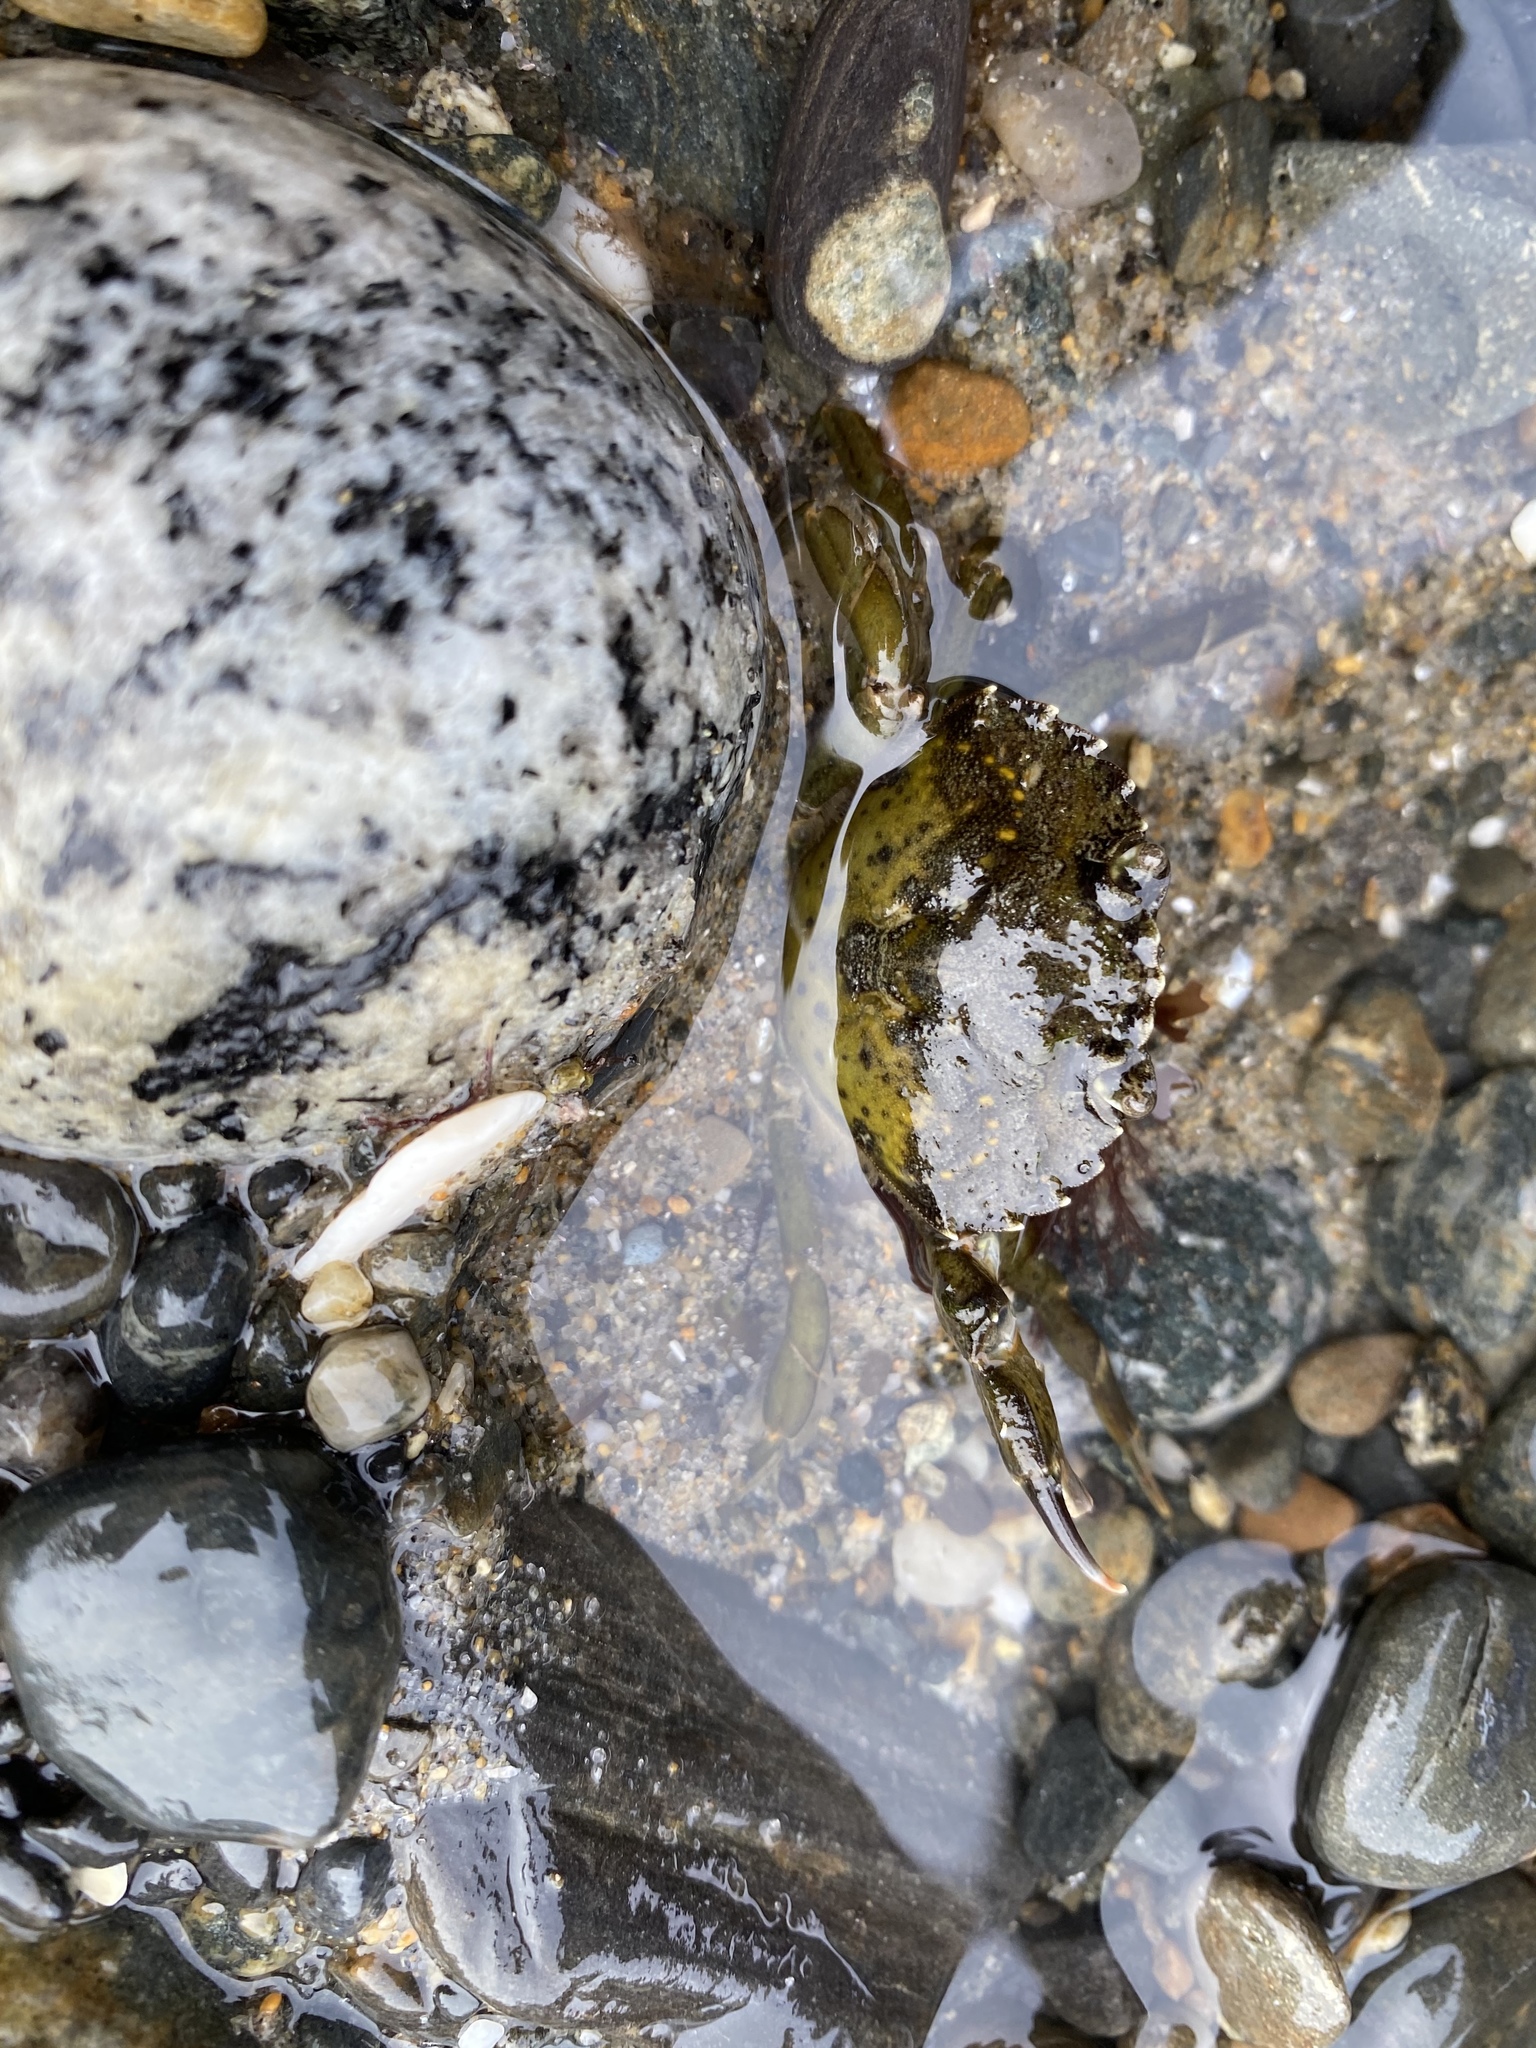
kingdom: Animalia
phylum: Arthropoda
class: Malacostraca
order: Decapoda
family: Carcinidae
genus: Carcinus
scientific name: Carcinus maenas
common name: European green crab
